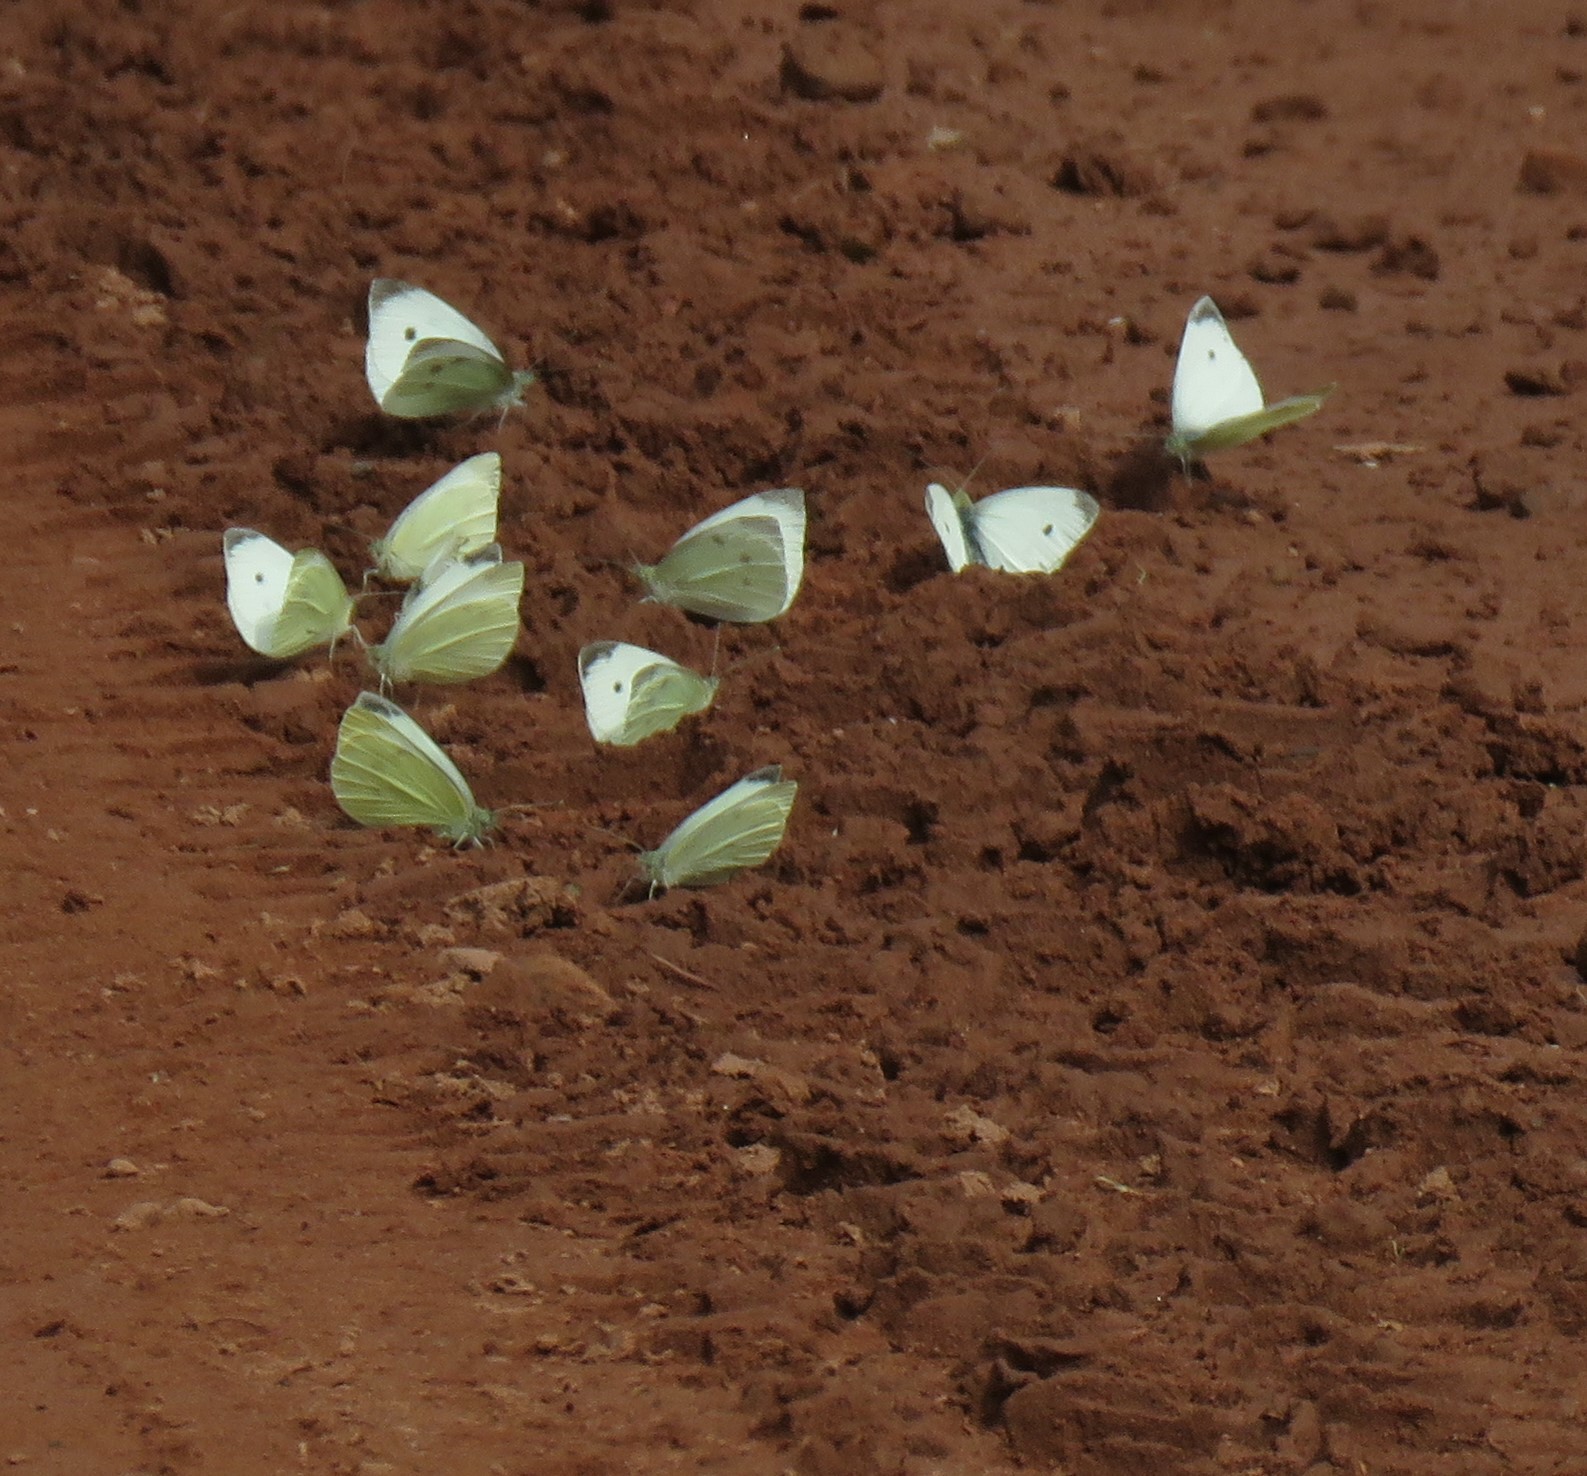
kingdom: Animalia
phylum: Arthropoda
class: Insecta
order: Lepidoptera
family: Pieridae
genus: Pieris
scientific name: Pieris rapae
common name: Small white
